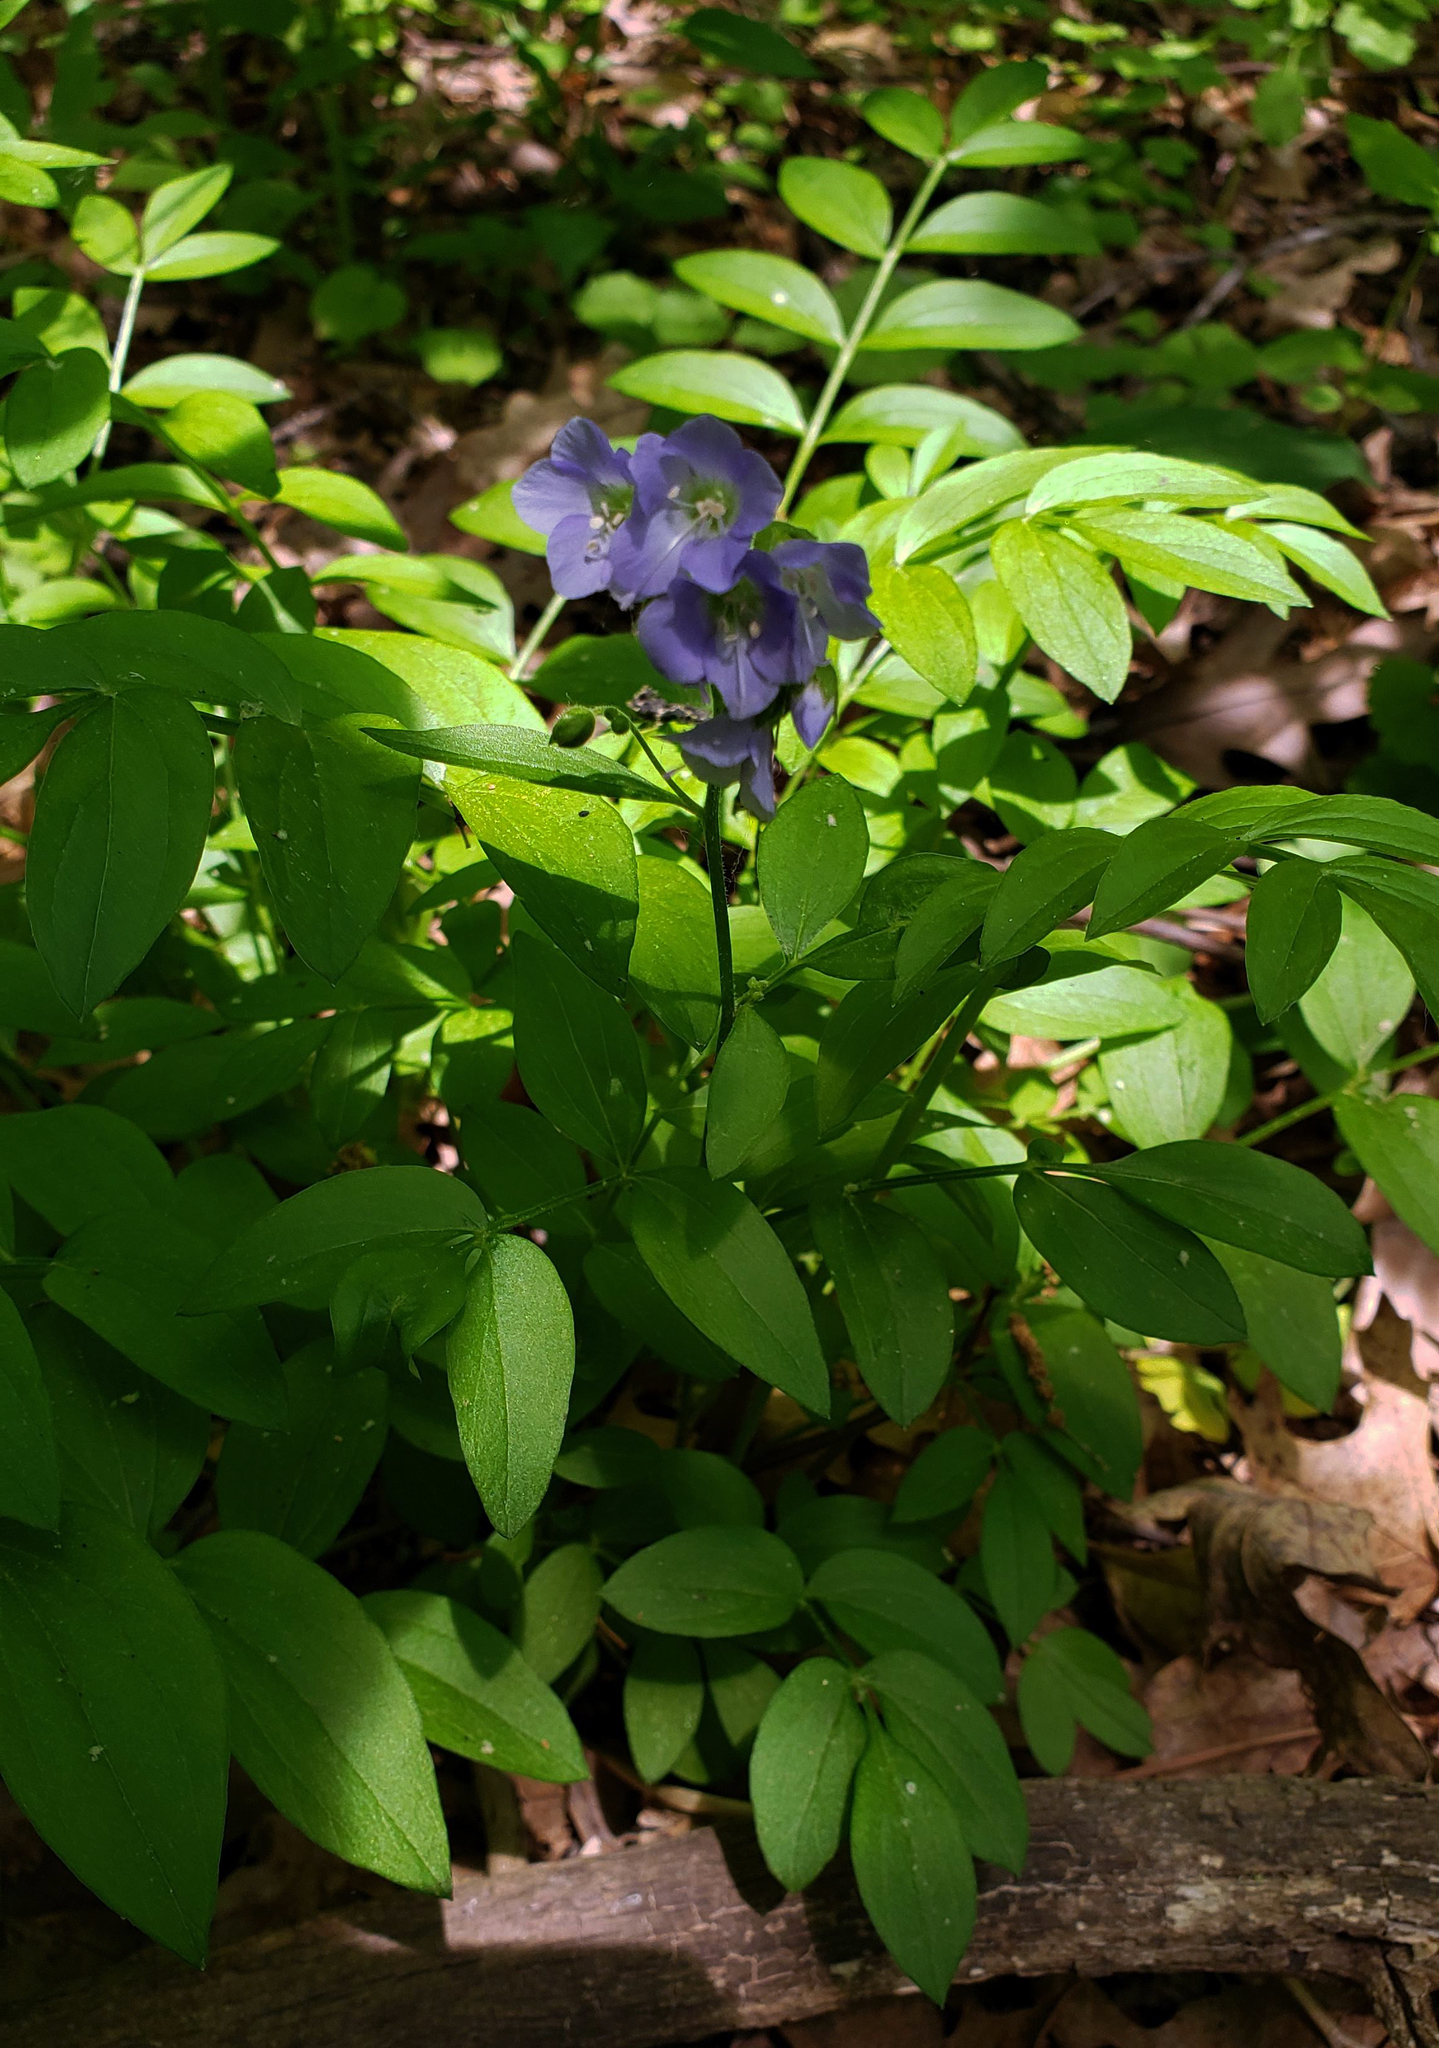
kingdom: Plantae
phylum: Tracheophyta
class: Magnoliopsida
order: Ericales
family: Polemoniaceae
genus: Polemonium
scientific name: Polemonium reptans
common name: Creeping jacob's-ladder
